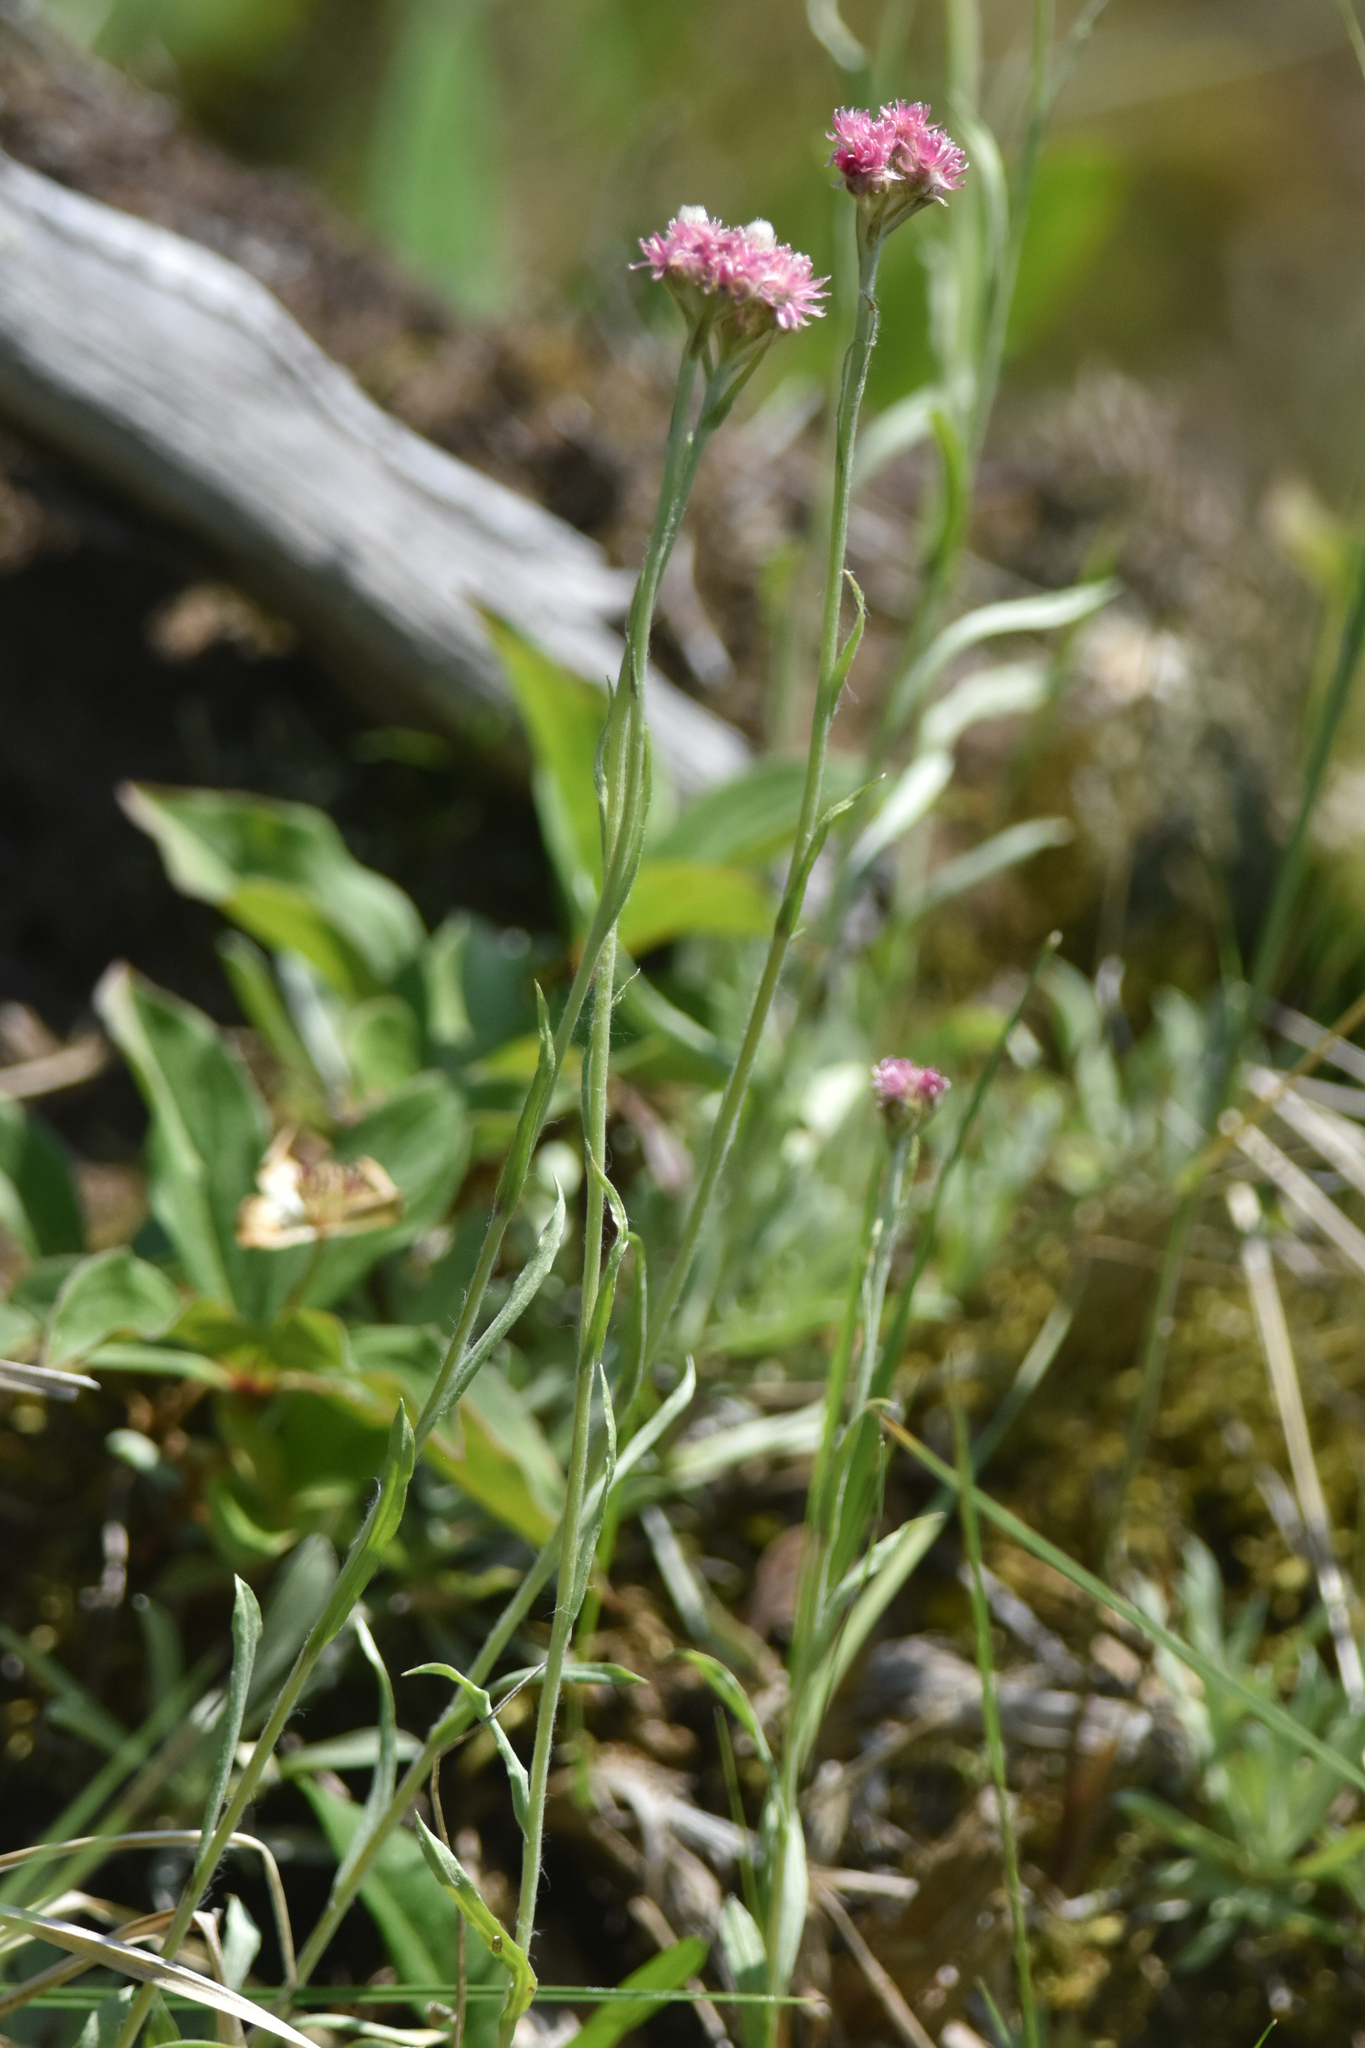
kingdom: Plantae
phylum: Tracheophyta
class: Magnoliopsida
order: Asterales
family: Asteraceae
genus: Antennaria
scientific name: Antennaria rosea
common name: Rosy pussytoes
